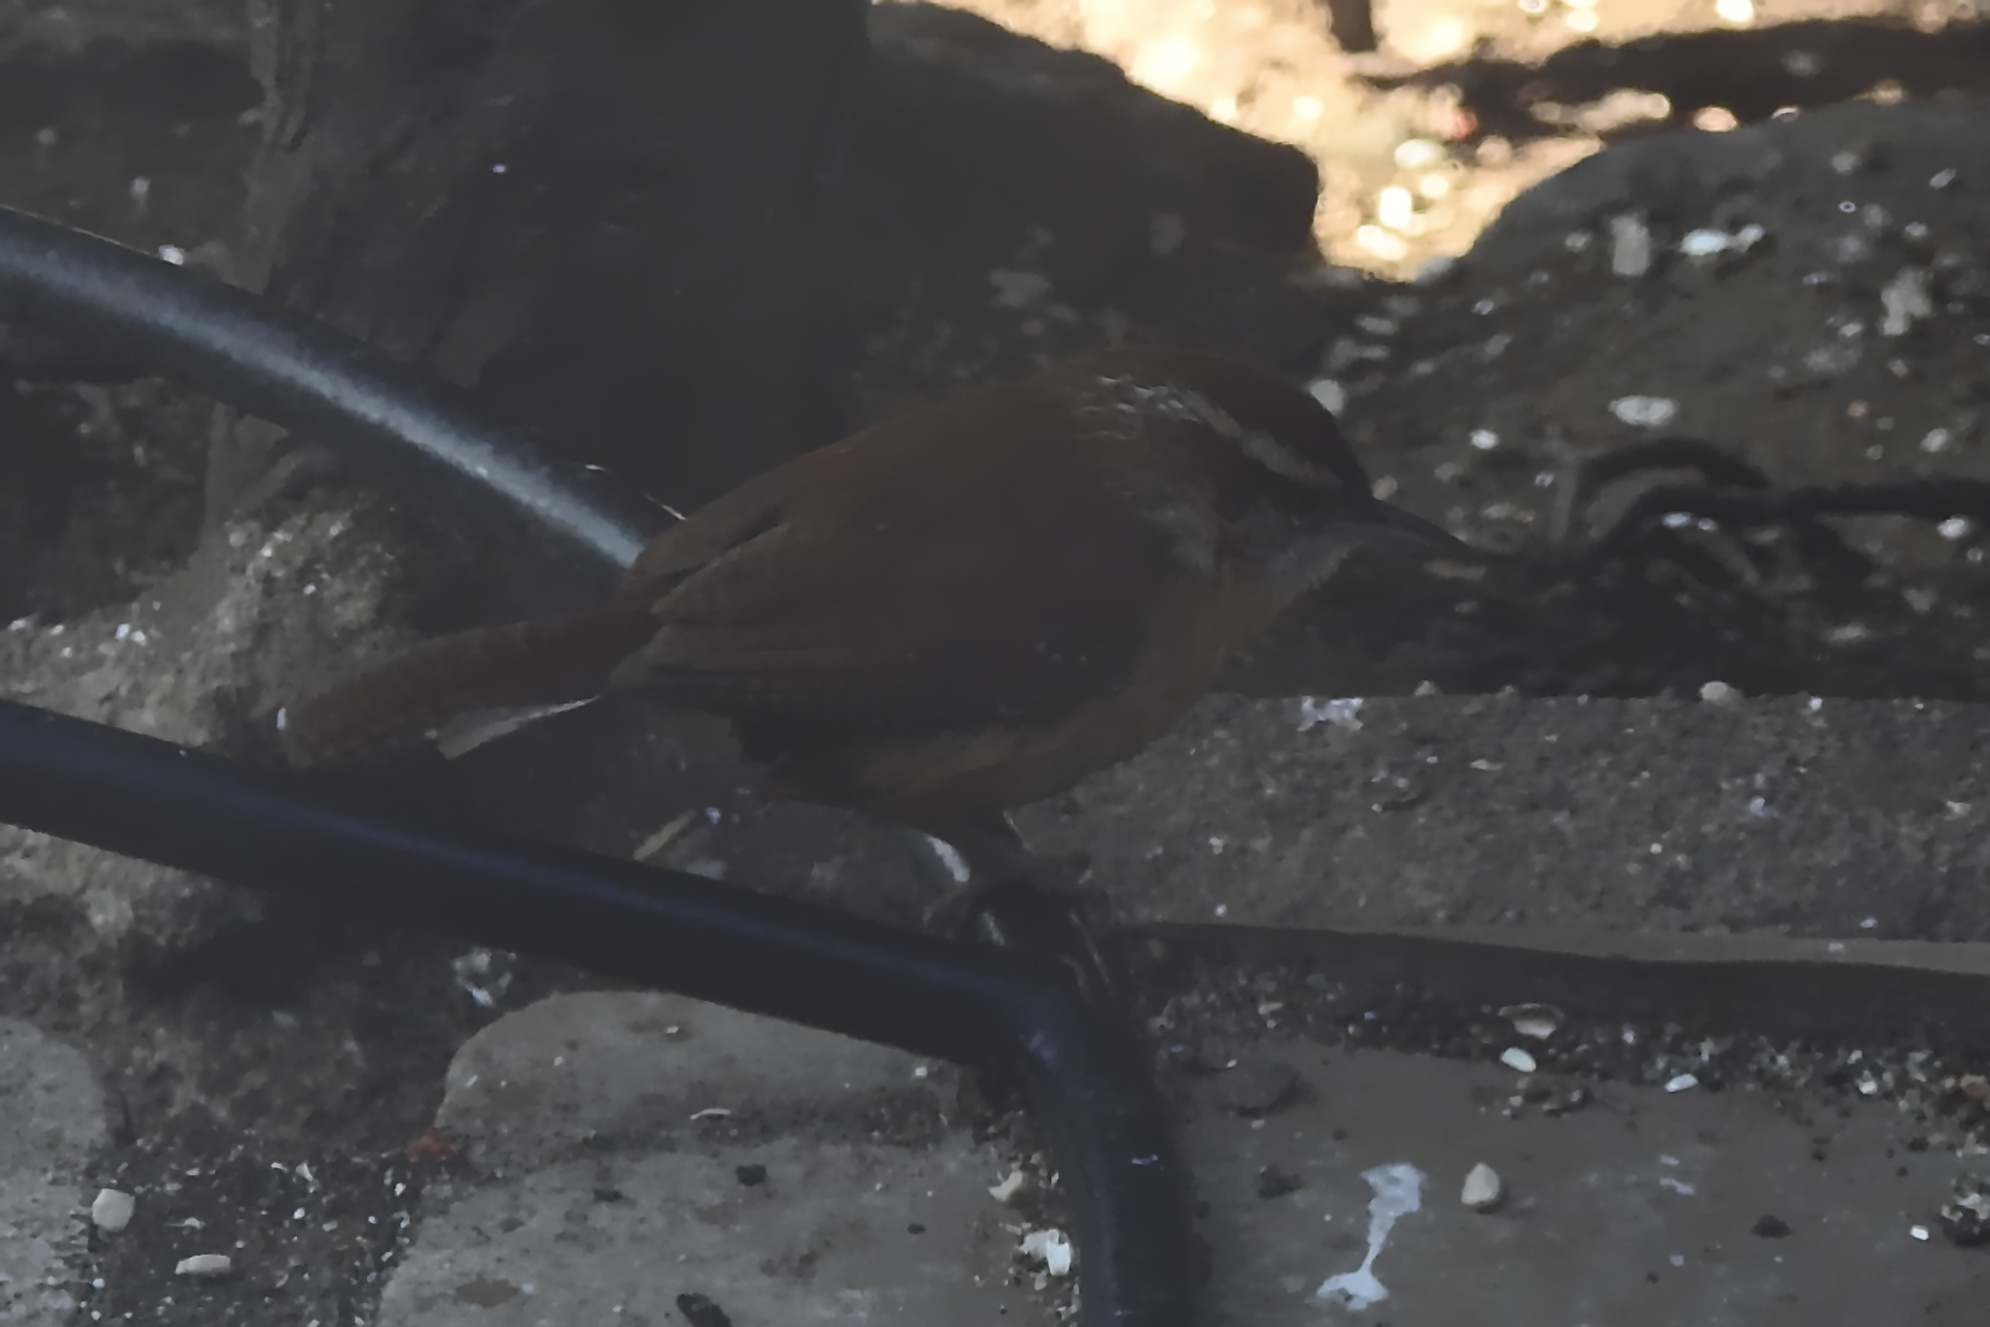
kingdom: Animalia
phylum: Chordata
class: Aves
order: Passeriformes
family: Troglodytidae
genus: Thryothorus
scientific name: Thryothorus ludovicianus
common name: Carolina wren
